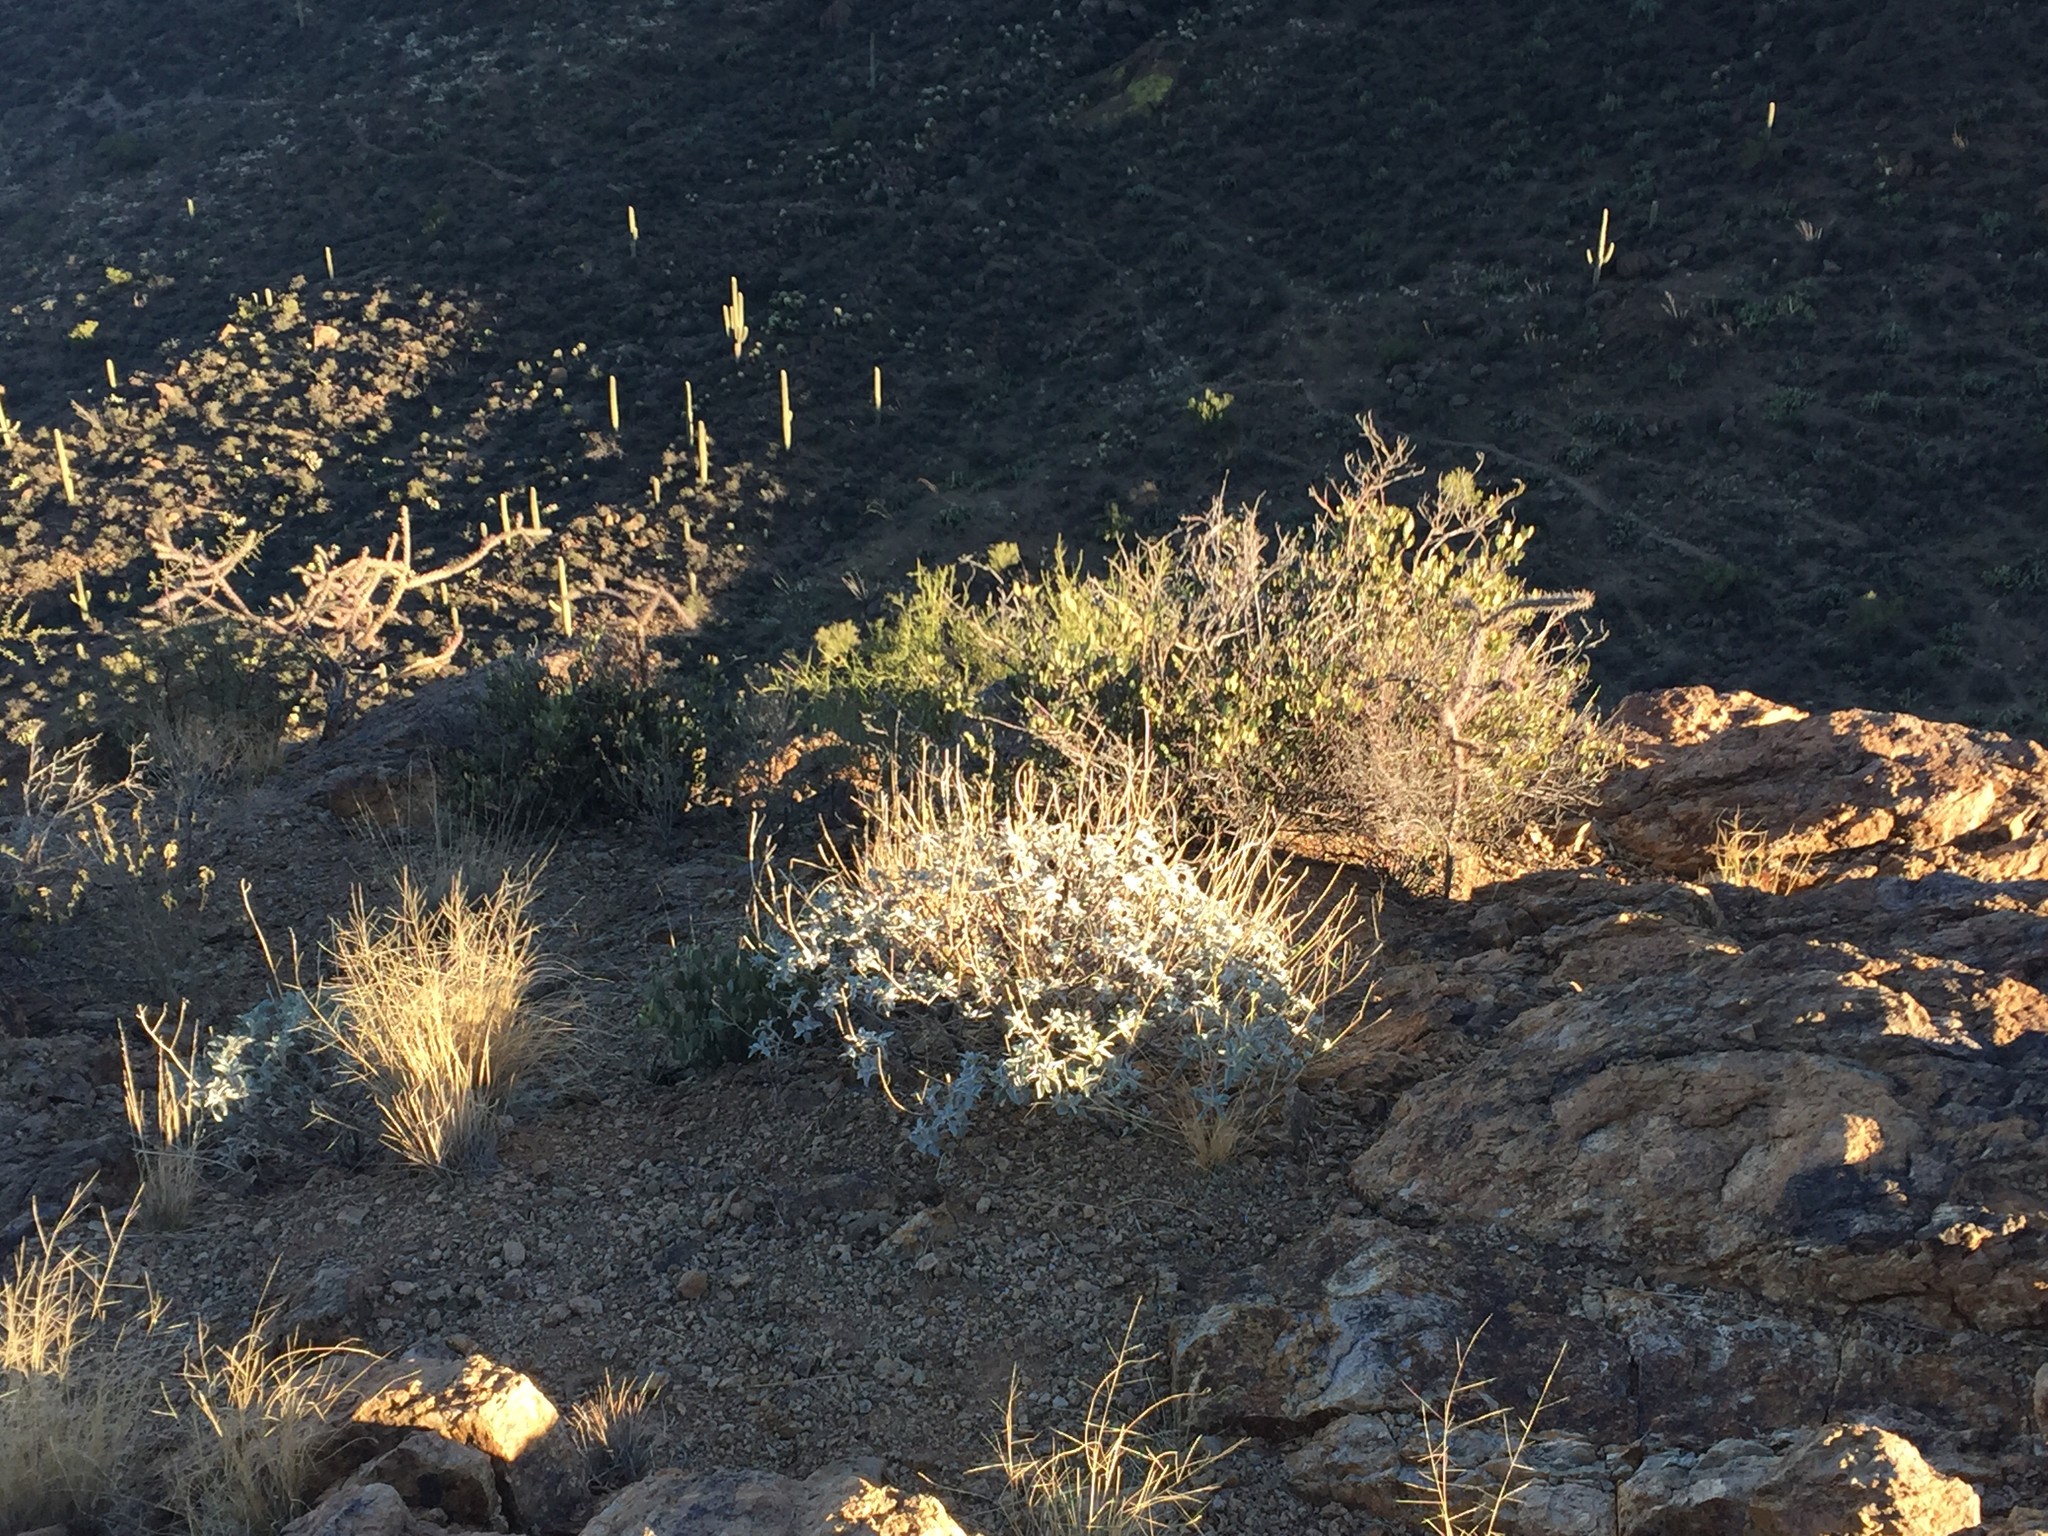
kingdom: Plantae
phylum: Tracheophyta
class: Magnoliopsida
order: Asterales
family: Asteraceae
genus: Encelia
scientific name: Encelia farinosa
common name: Brittlebush
